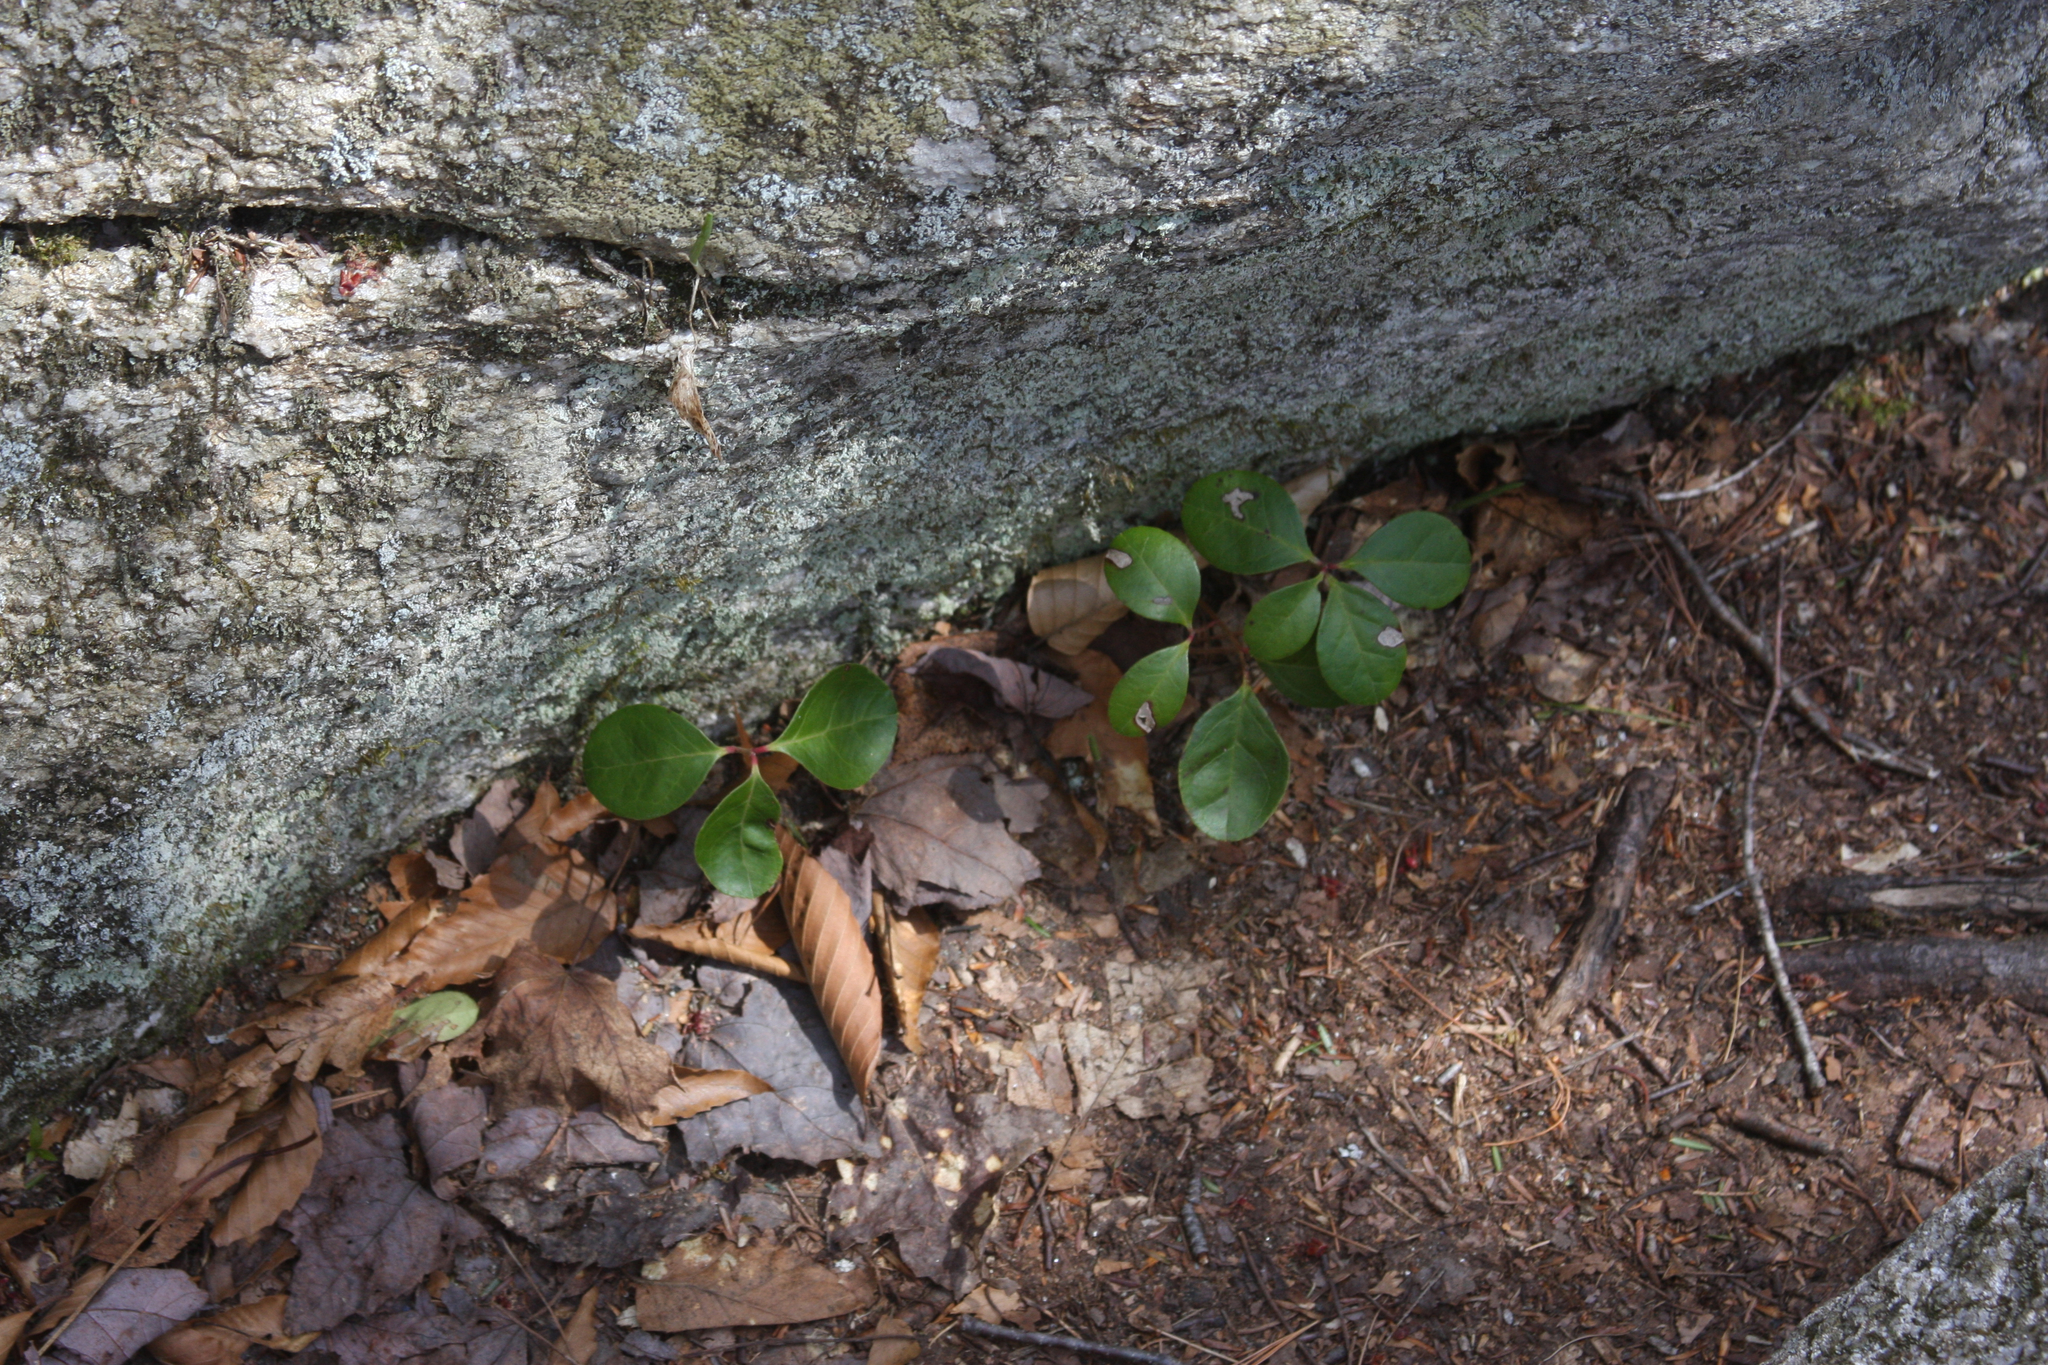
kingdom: Plantae
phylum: Tracheophyta
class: Magnoliopsida
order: Ericales
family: Ericaceae
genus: Gaultheria
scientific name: Gaultheria procumbens
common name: Checkerberry
